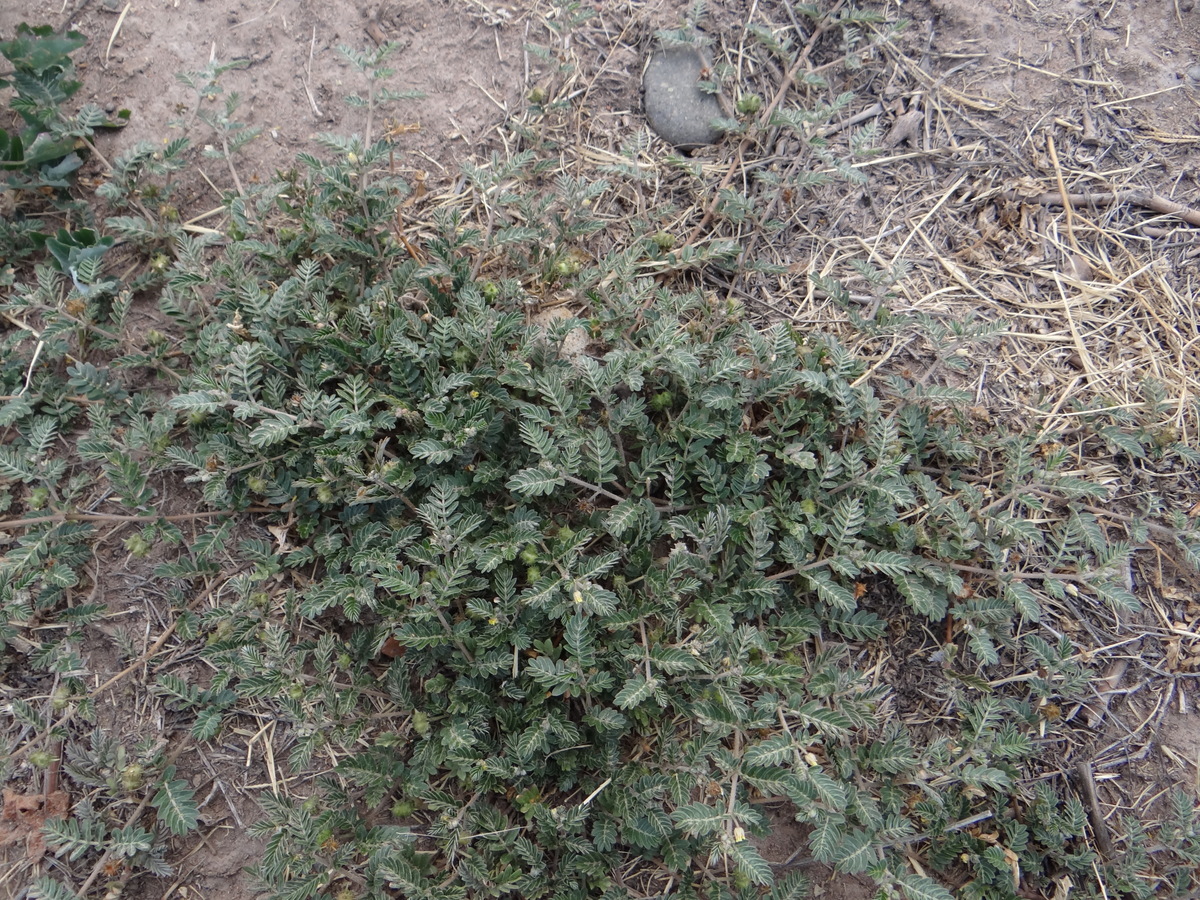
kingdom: Plantae
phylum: Tracheophyta
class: Magnoliopsida
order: Zygophyllales
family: Zygophyllaceae
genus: Tribulus
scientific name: Tribulus terrestris
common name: Puncturevine
